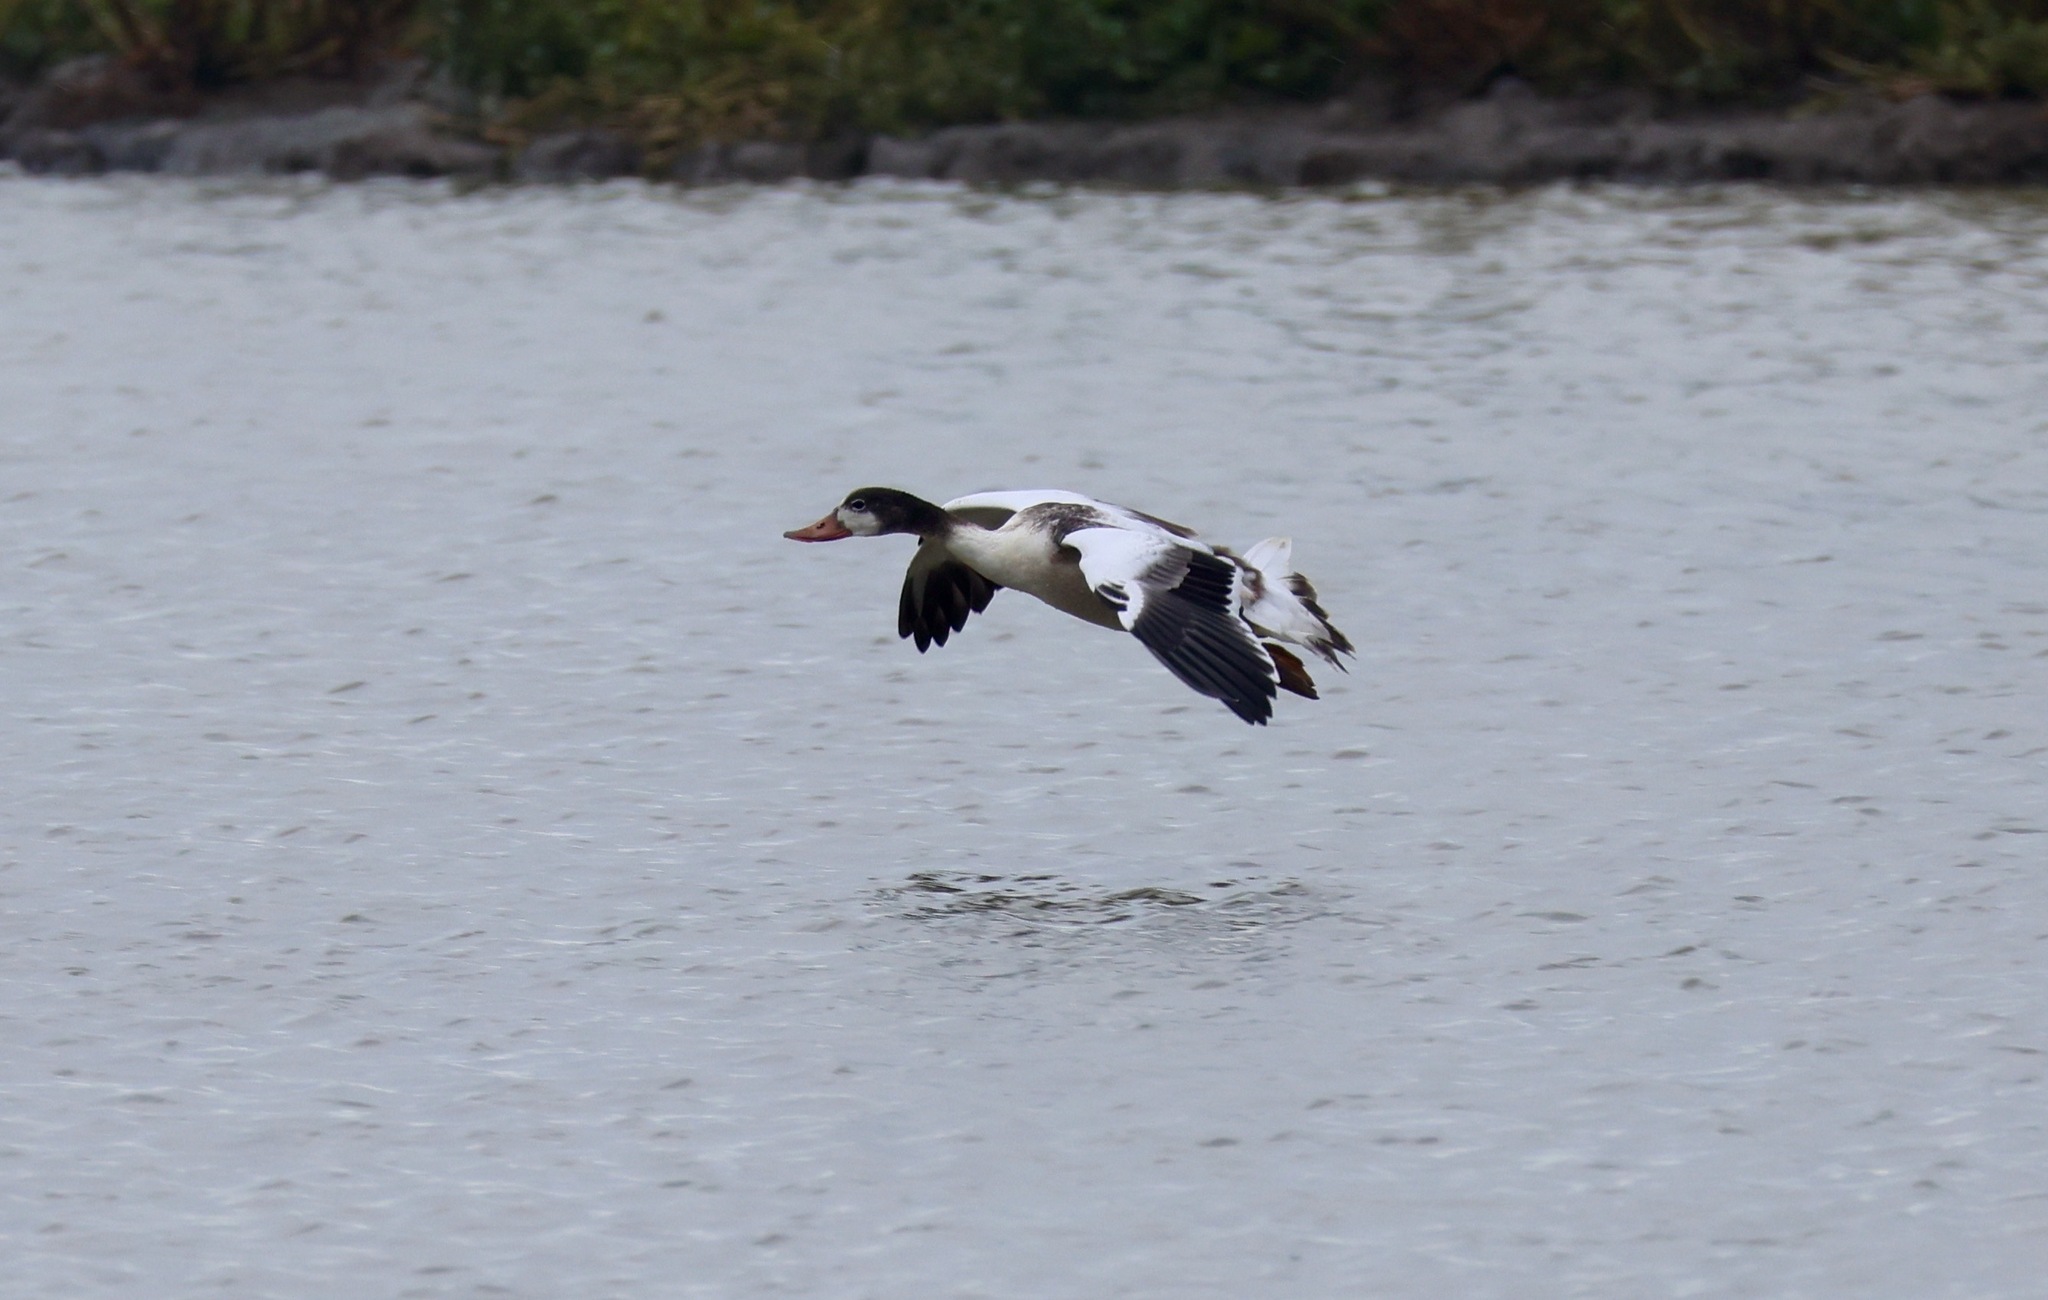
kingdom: Animalia
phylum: Chordata
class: Aves
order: Anseriformes
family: Anatidae
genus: Tadorna
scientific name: Tadorna tadorna
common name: Common shelduck
